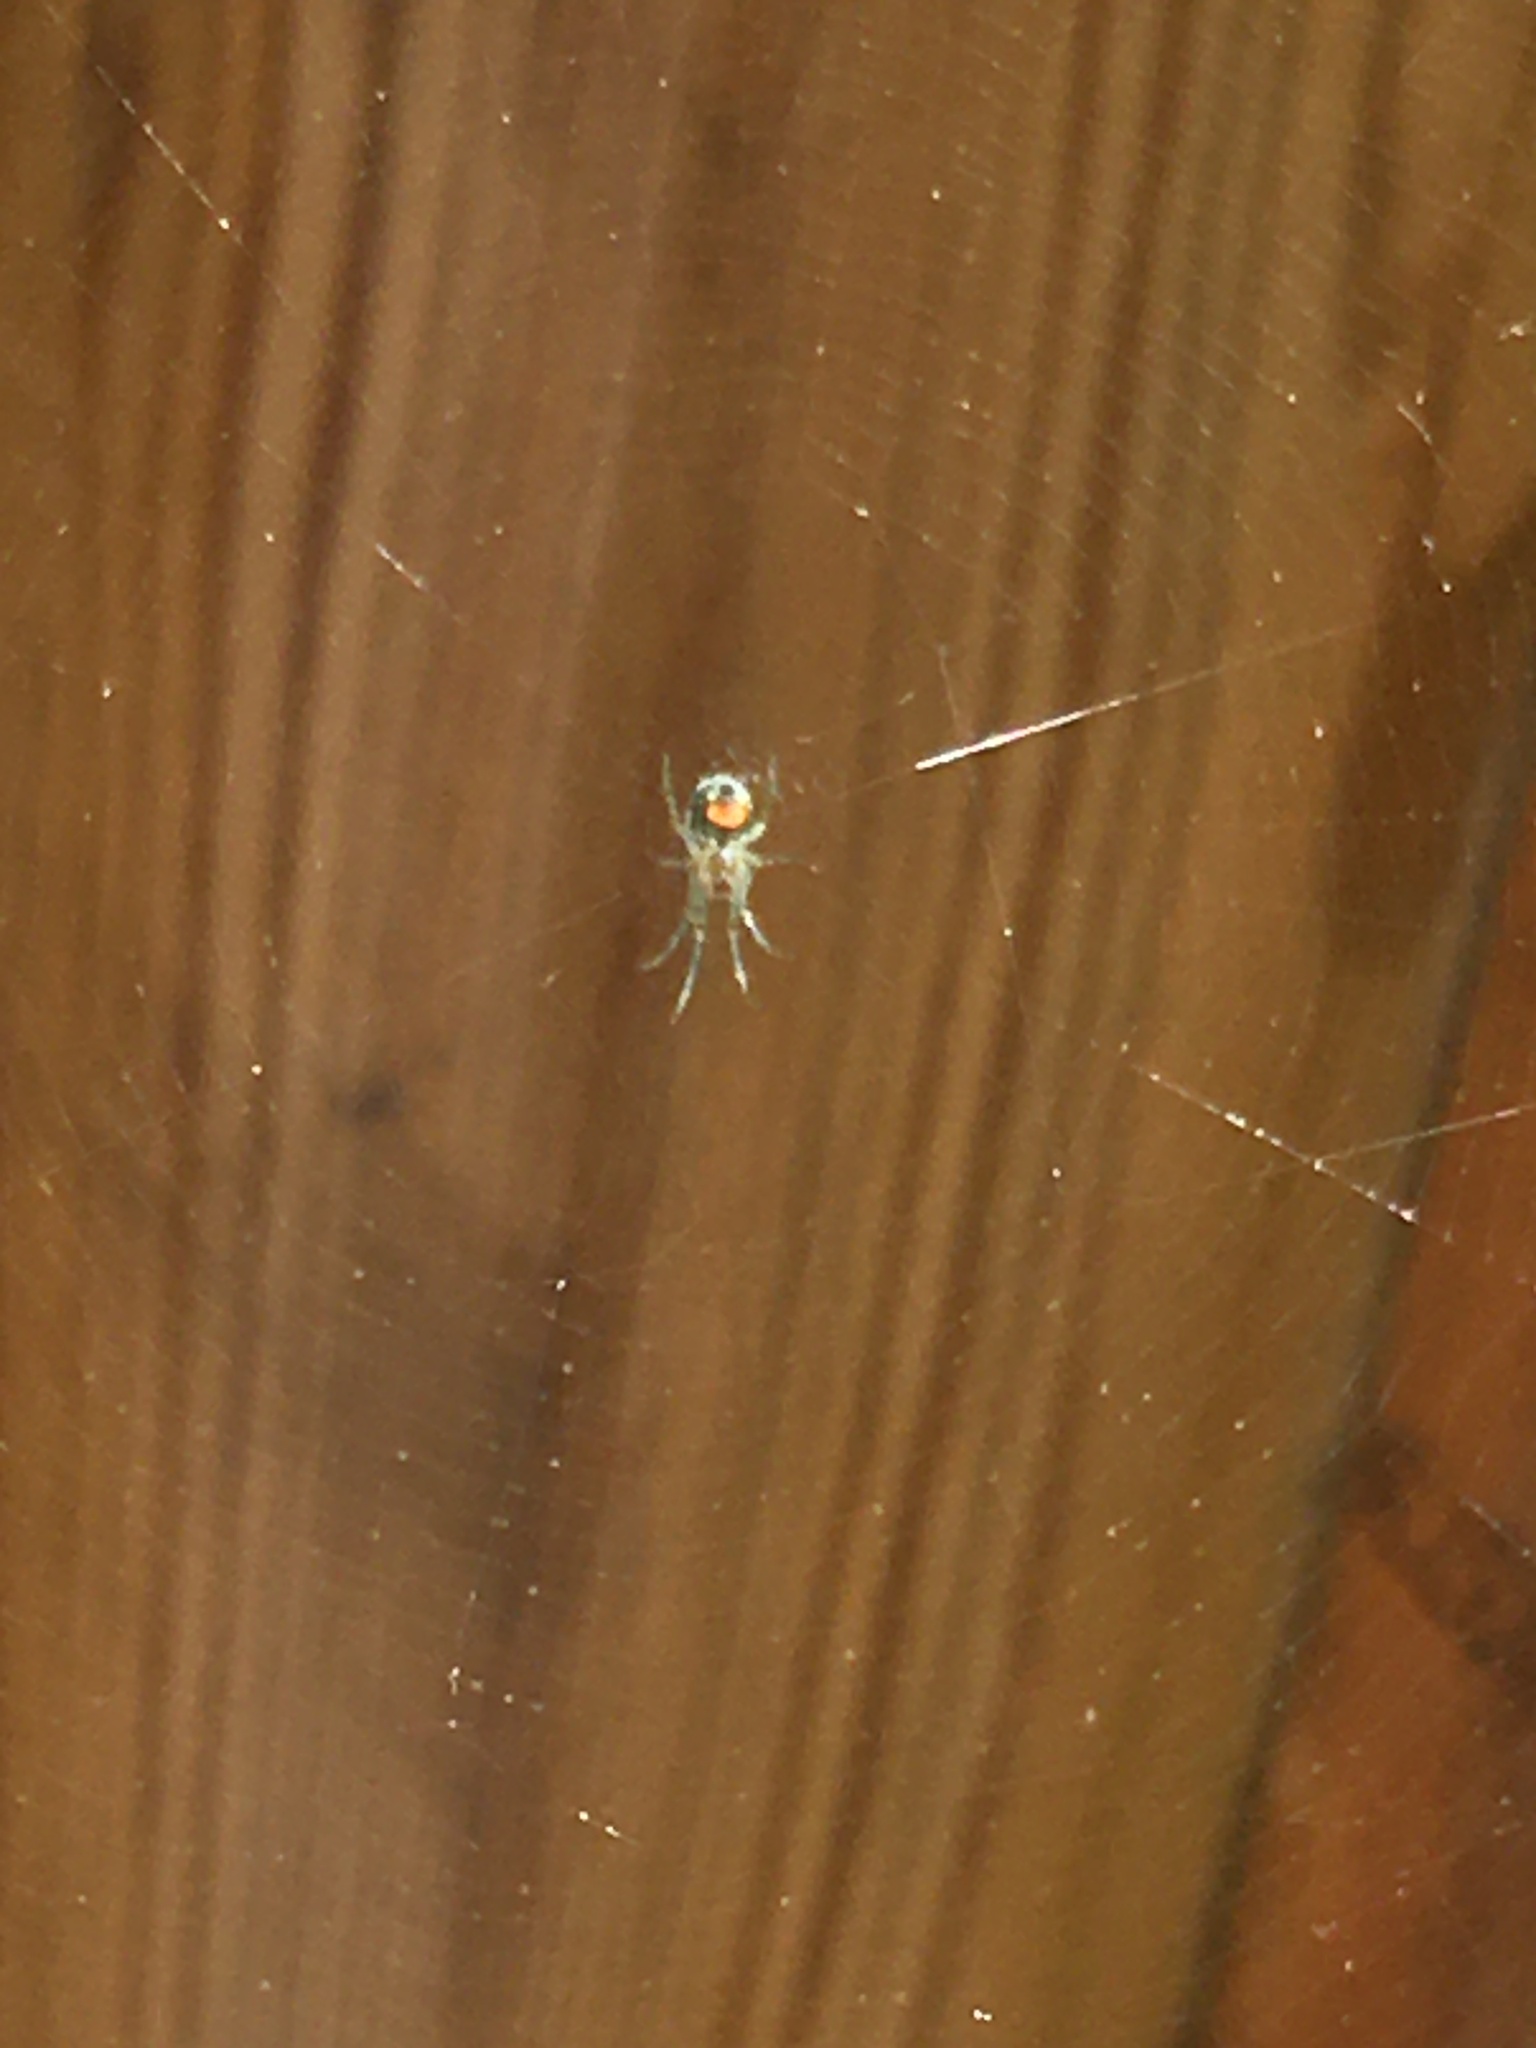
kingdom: Animalia
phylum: Arthropoda
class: Arachnida
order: Araneae
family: Tetragnathidae
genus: Leucauge
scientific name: Leucauge venusta
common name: Longjawed orb weavers
